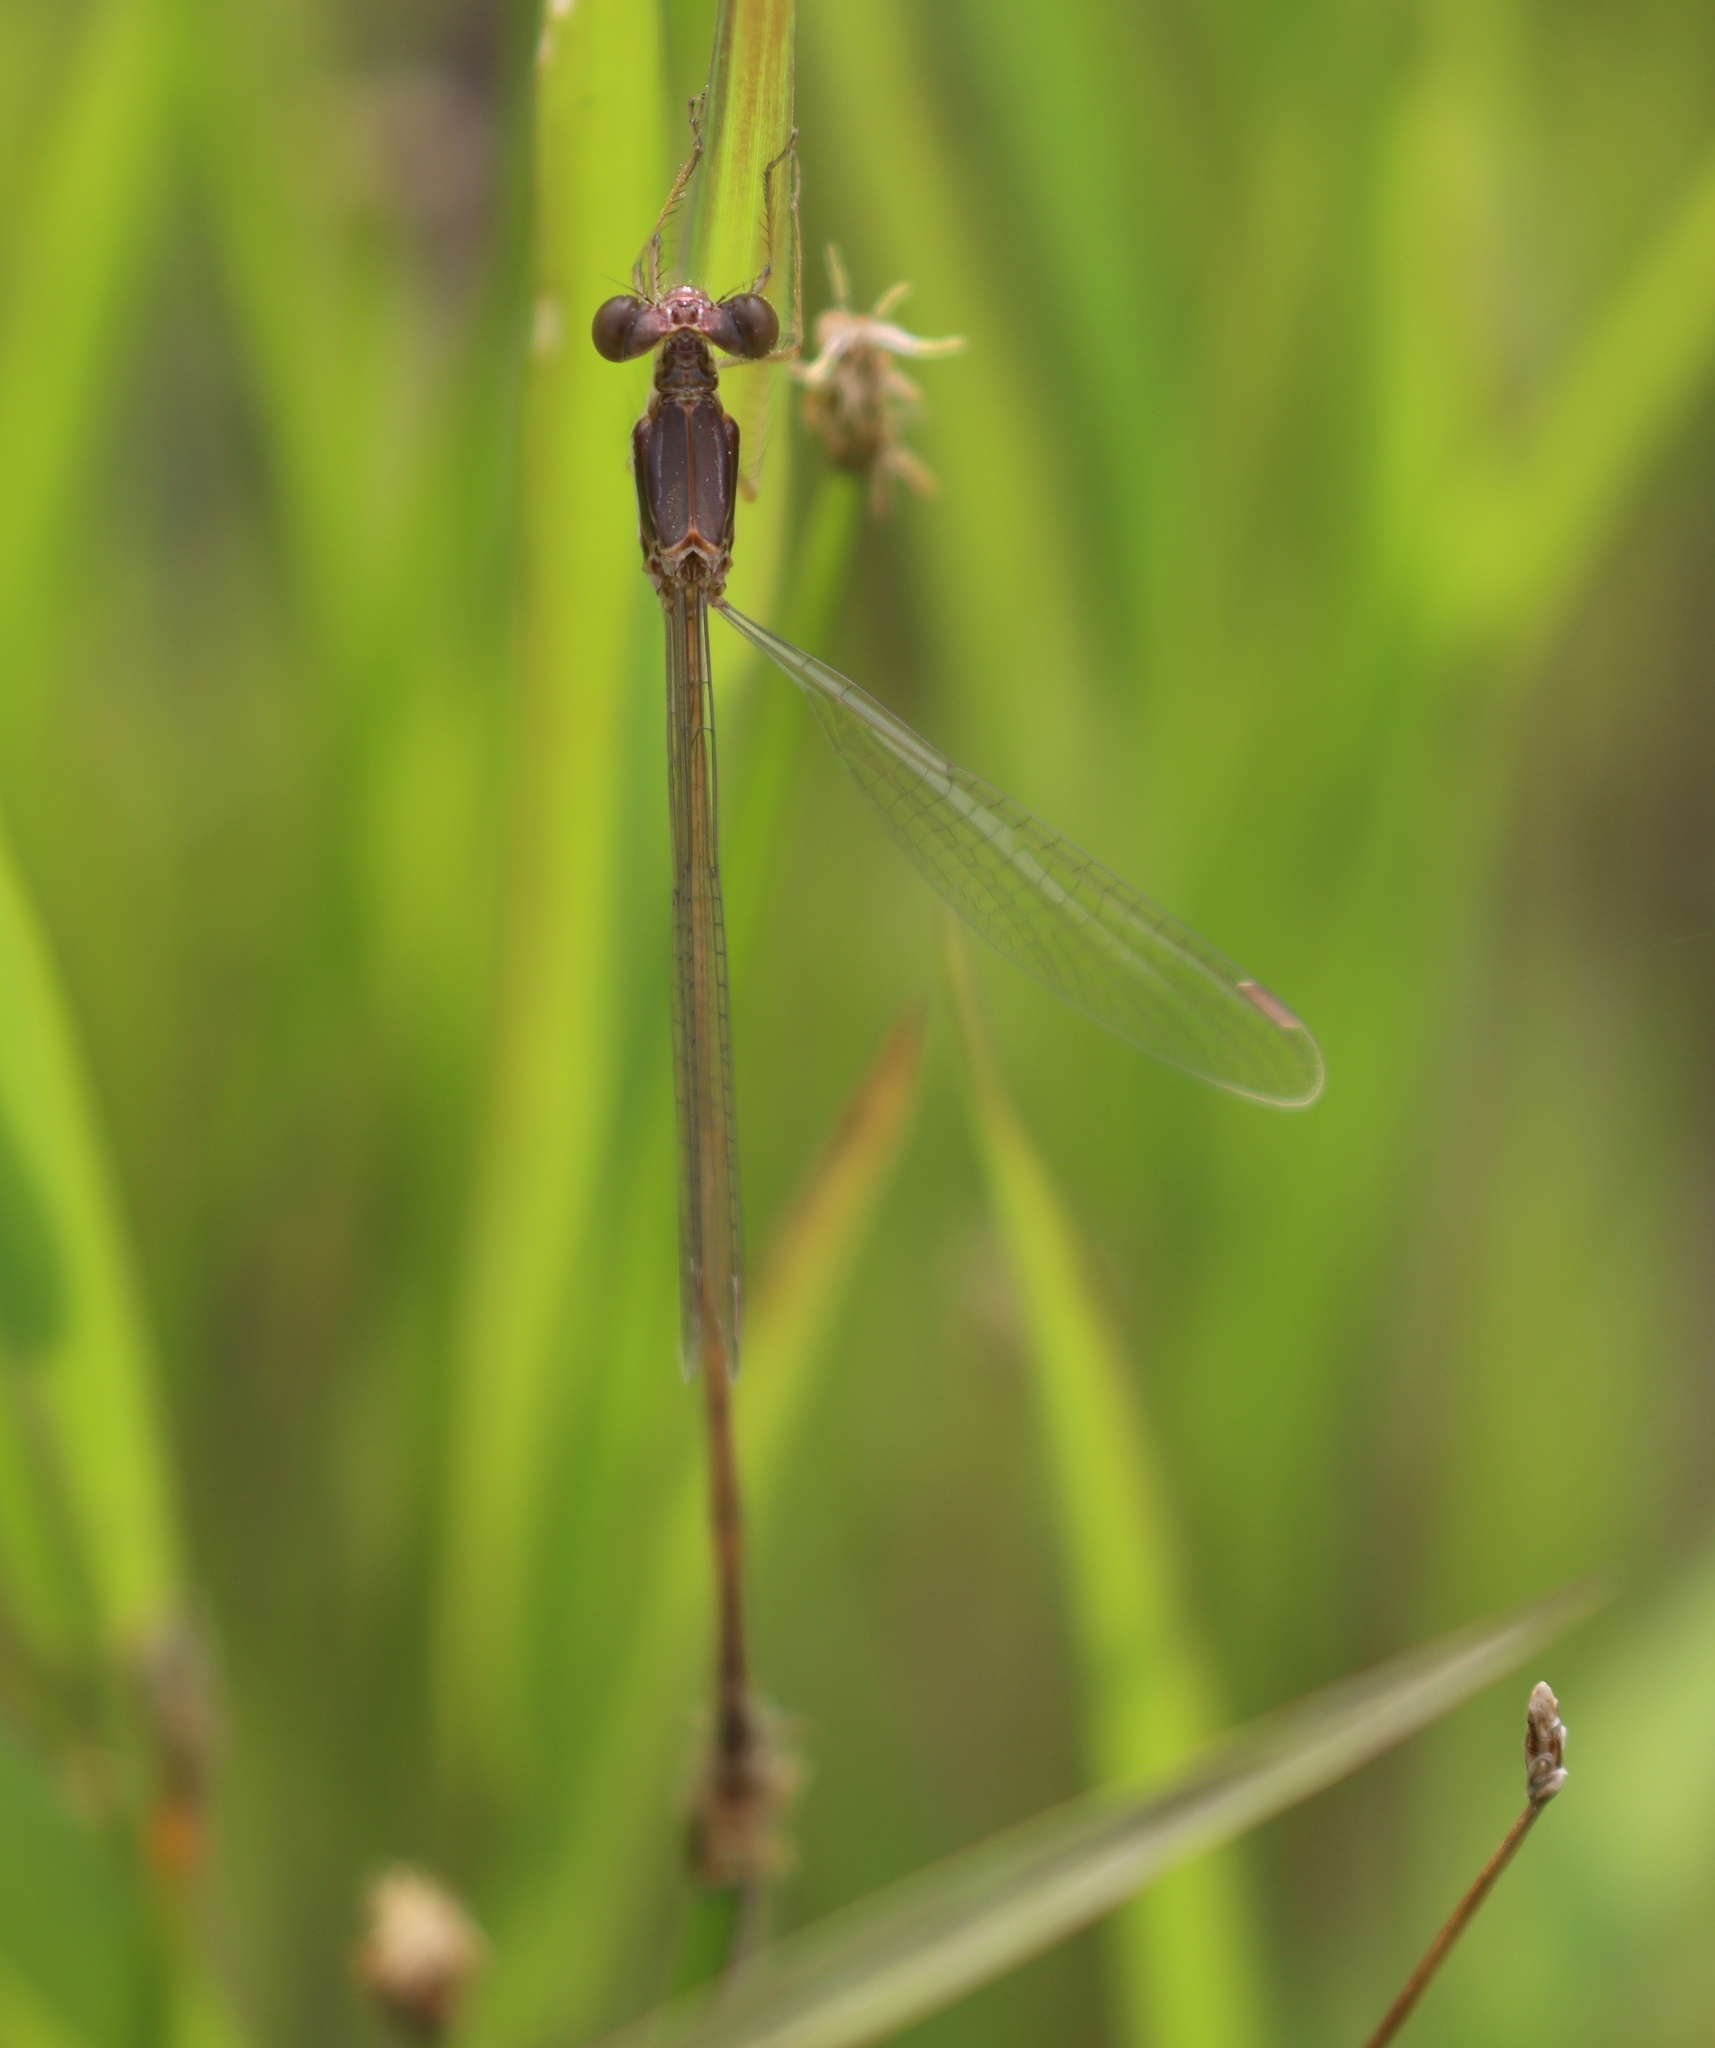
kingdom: Animalia
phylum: Arthropoda
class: Insecta
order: Odonata
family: Lestidae
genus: Lestes
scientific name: Lestes rectangularis
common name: Slender spreadwing
